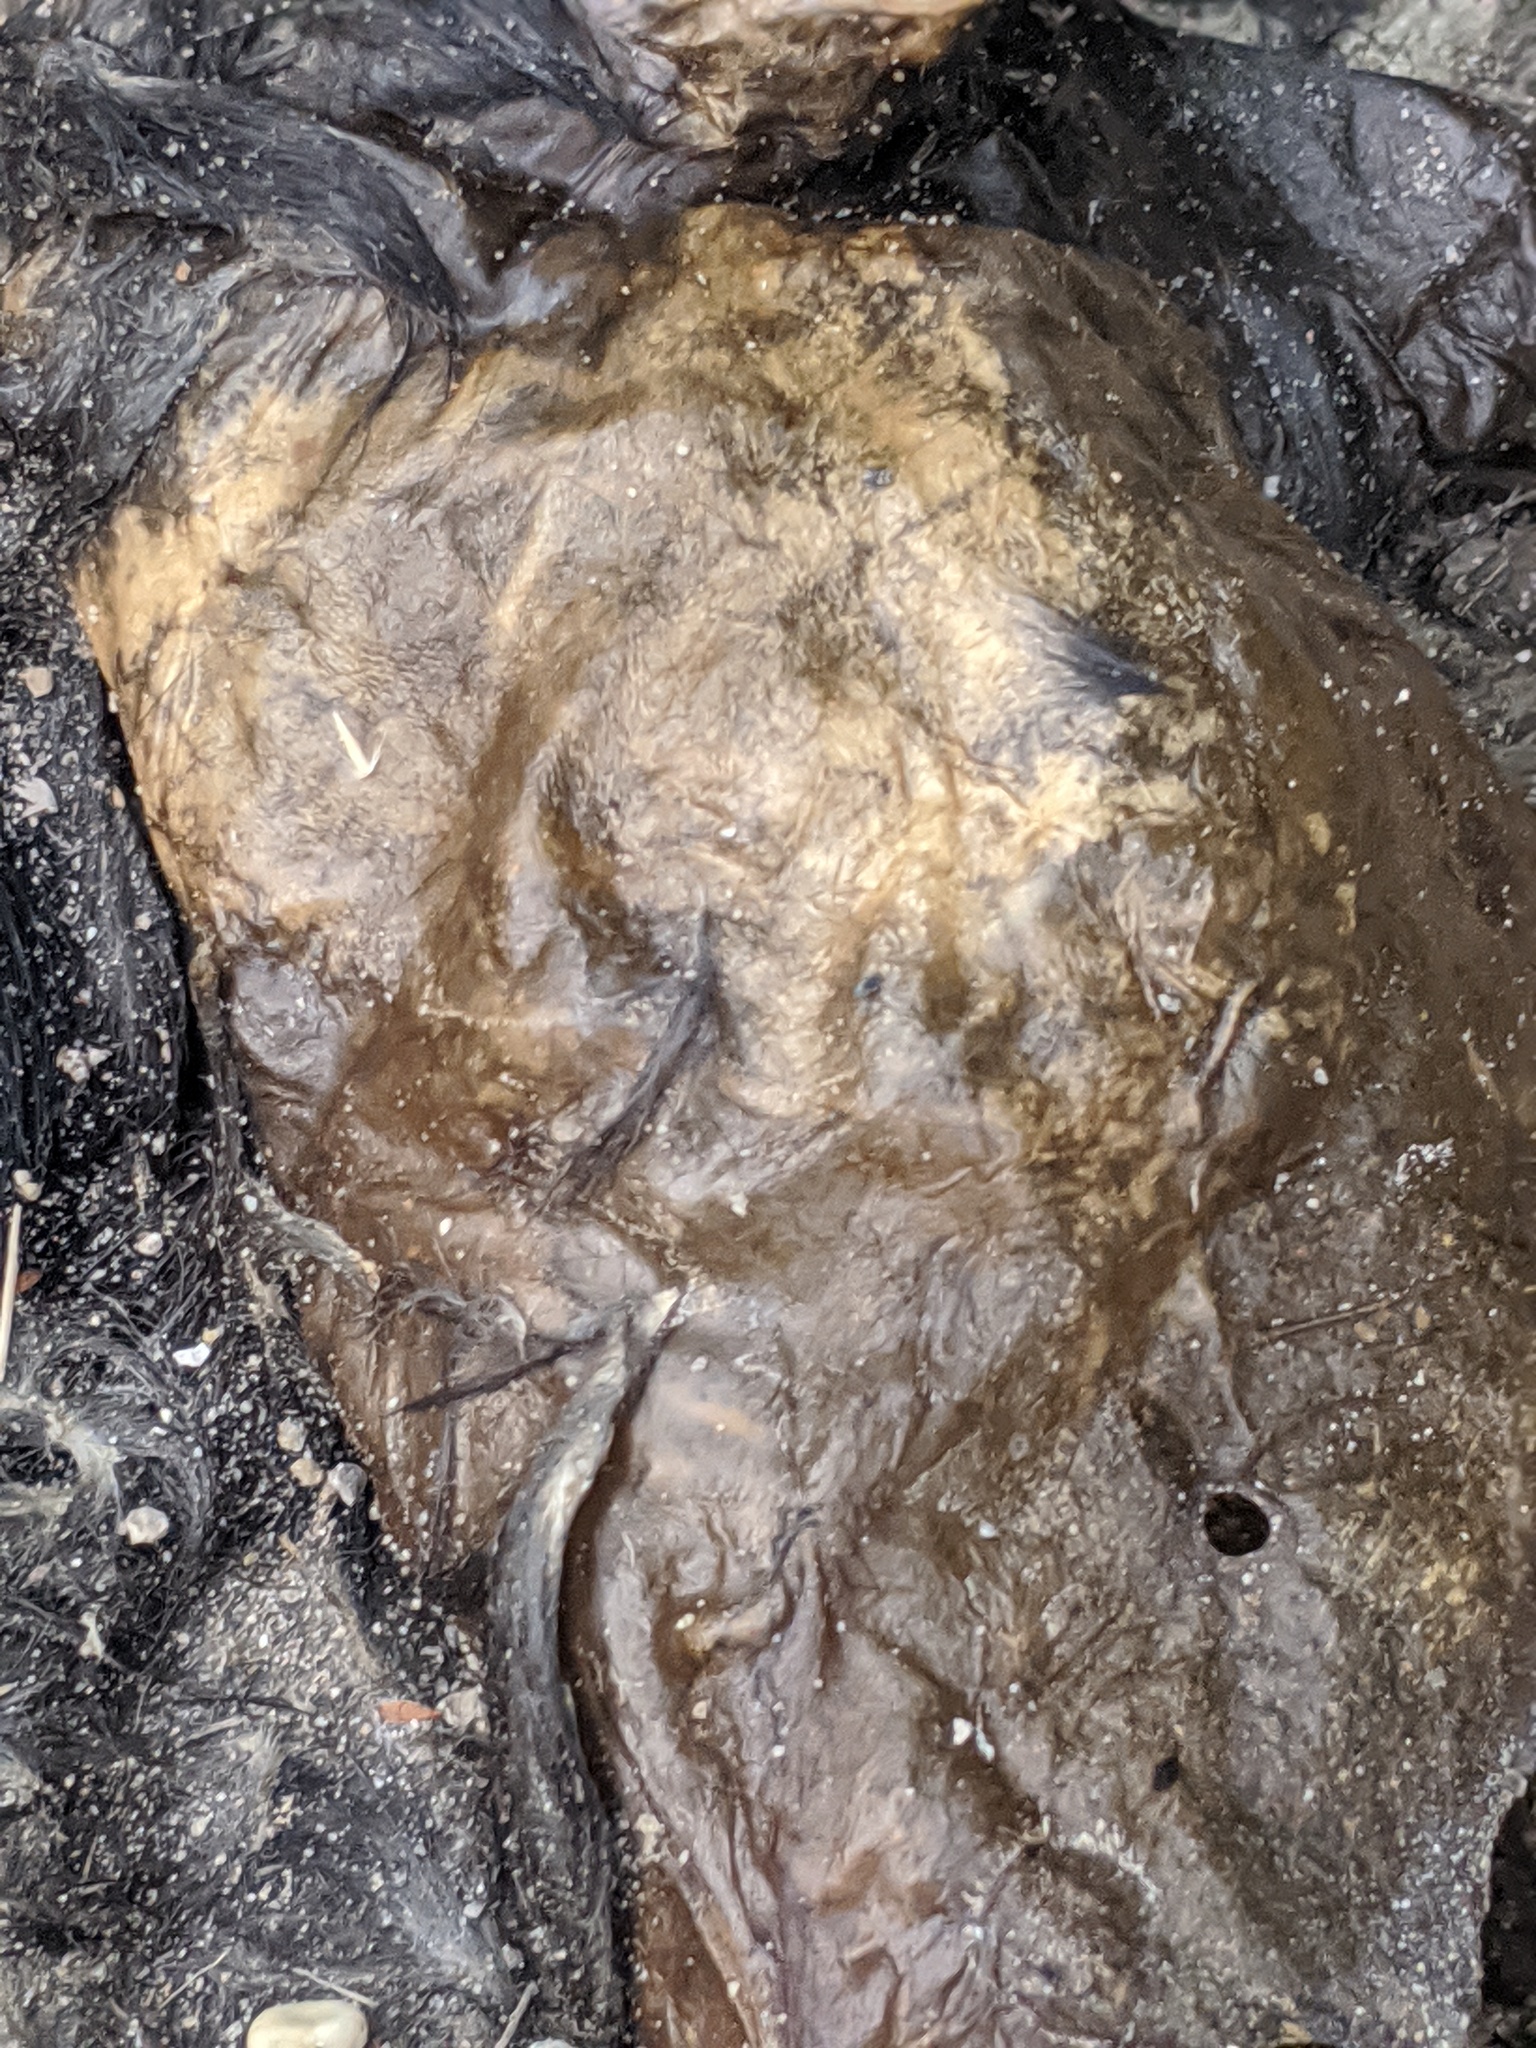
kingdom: Animalia
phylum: Chordata
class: Mammalia
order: Rodentia
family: Sciuridae
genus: Sciurus
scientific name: Sciurus carolinensis
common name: Eastern gray squirrel
